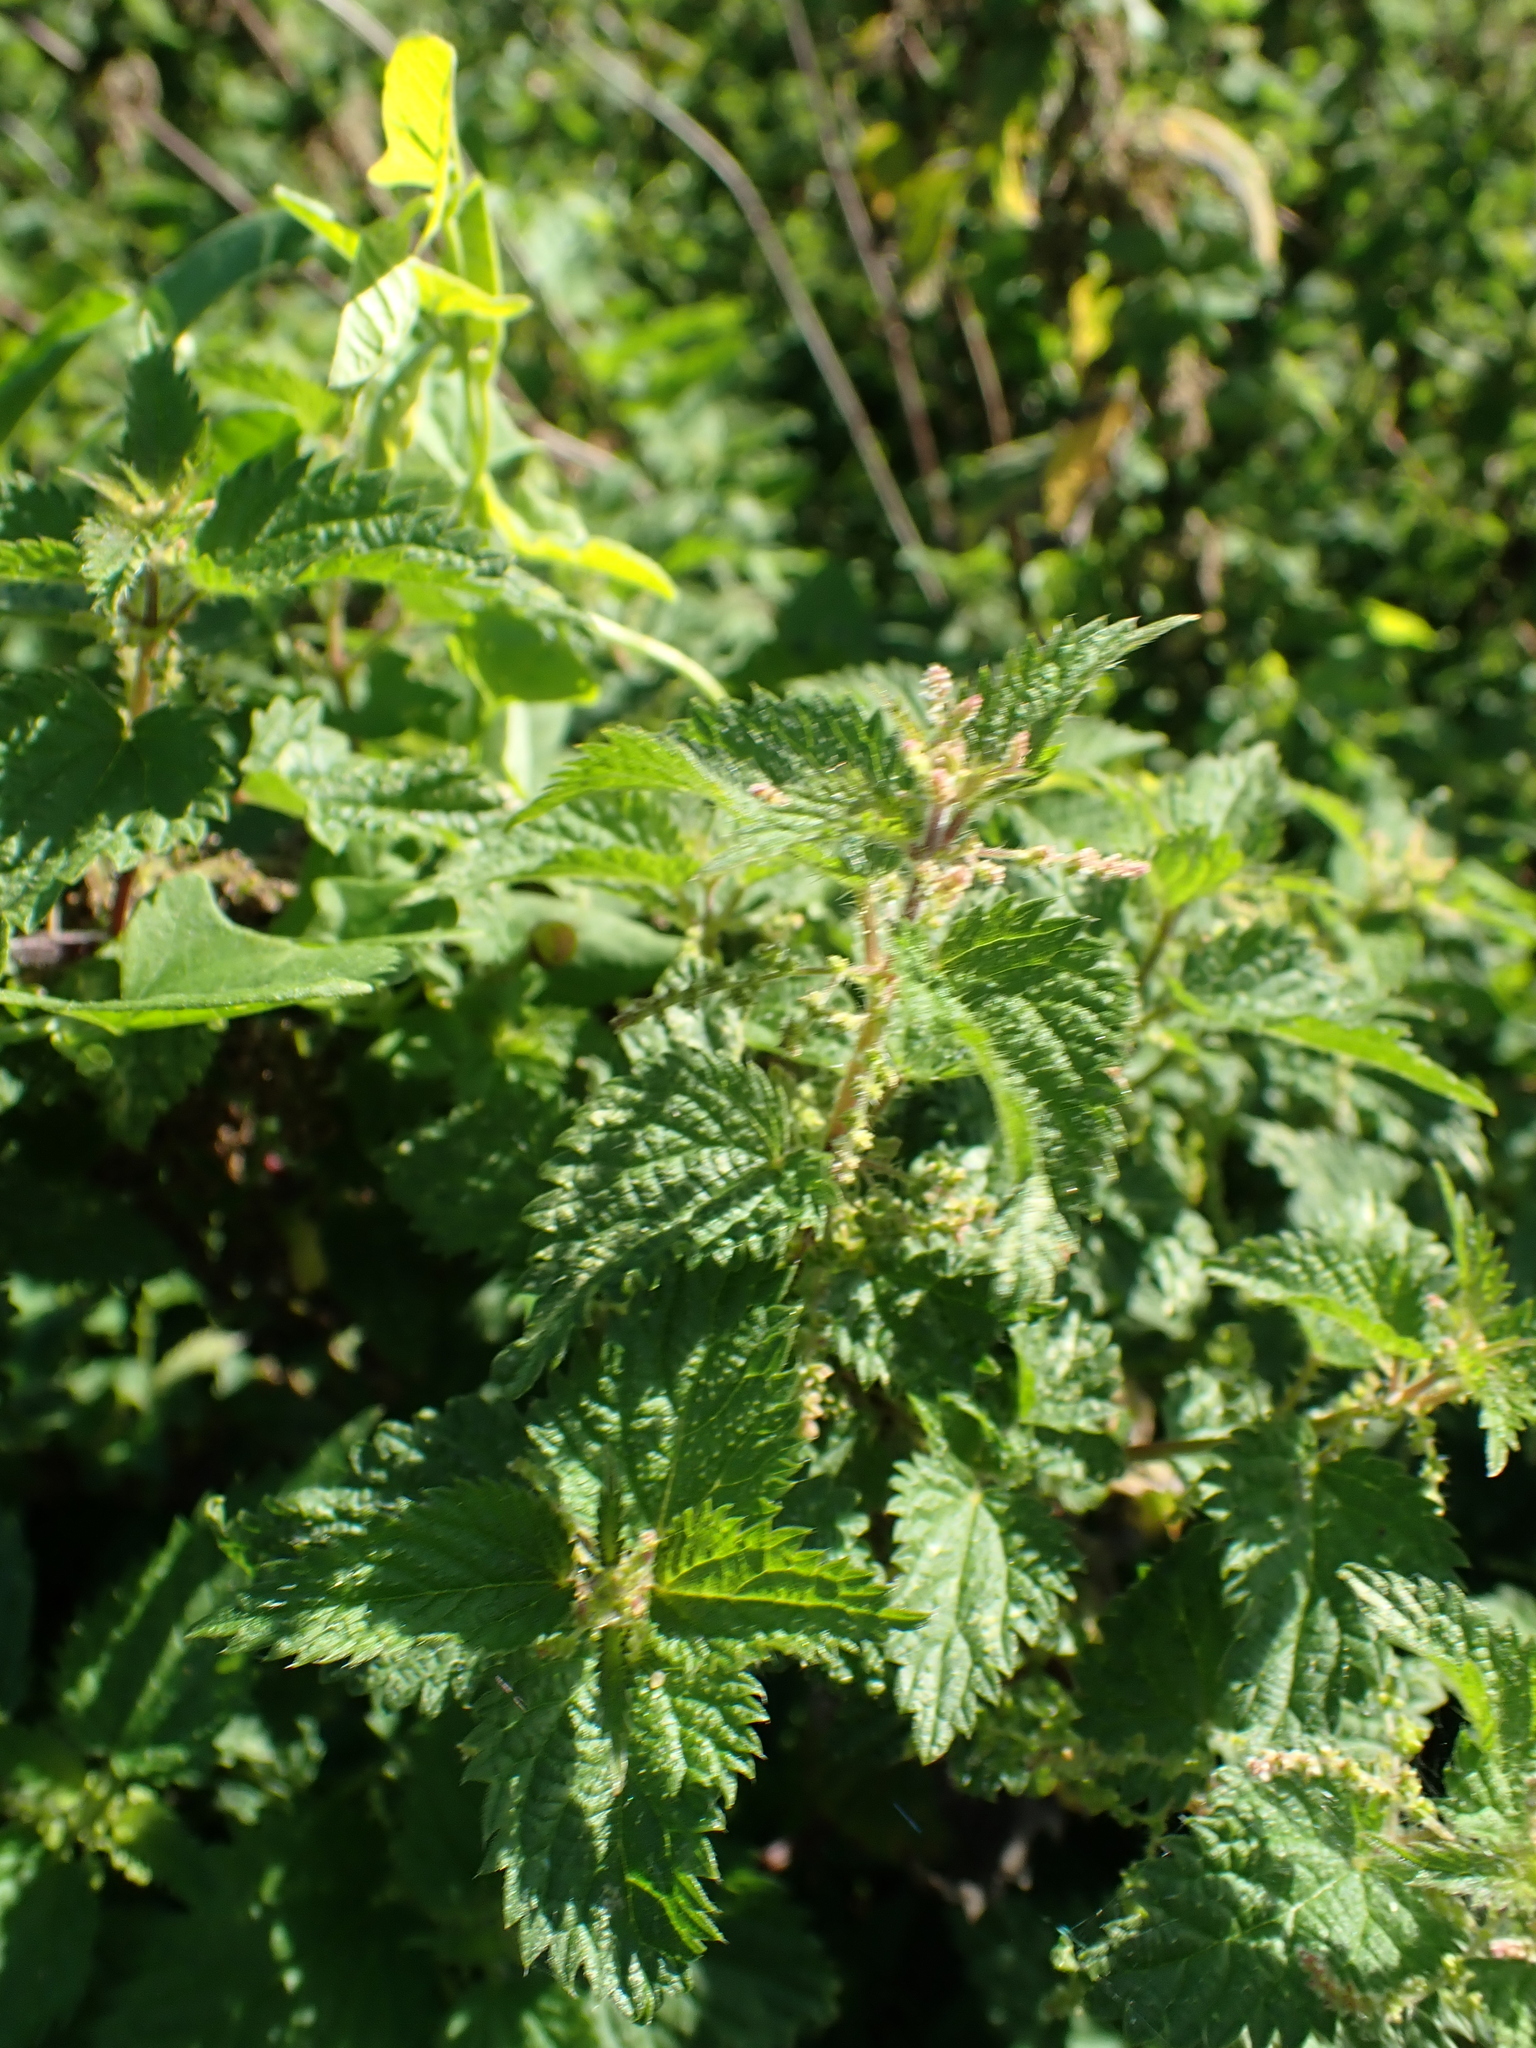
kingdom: Plantae
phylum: Tracheophyta
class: Magnoliopsida
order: Rosales
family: Urticaceae
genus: Urtica
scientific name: Urtica dioica
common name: Common nettle
